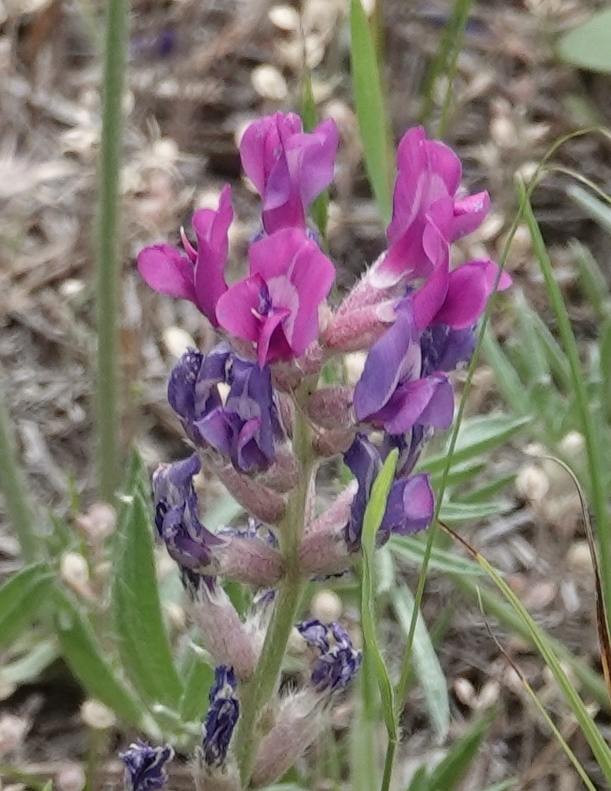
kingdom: Plantae
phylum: Tracheophyta
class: Magnoliopsida
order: Fabales
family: Fabaceae
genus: Oxytropis
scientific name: Oxytropis lambertii
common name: Purple locoweed
